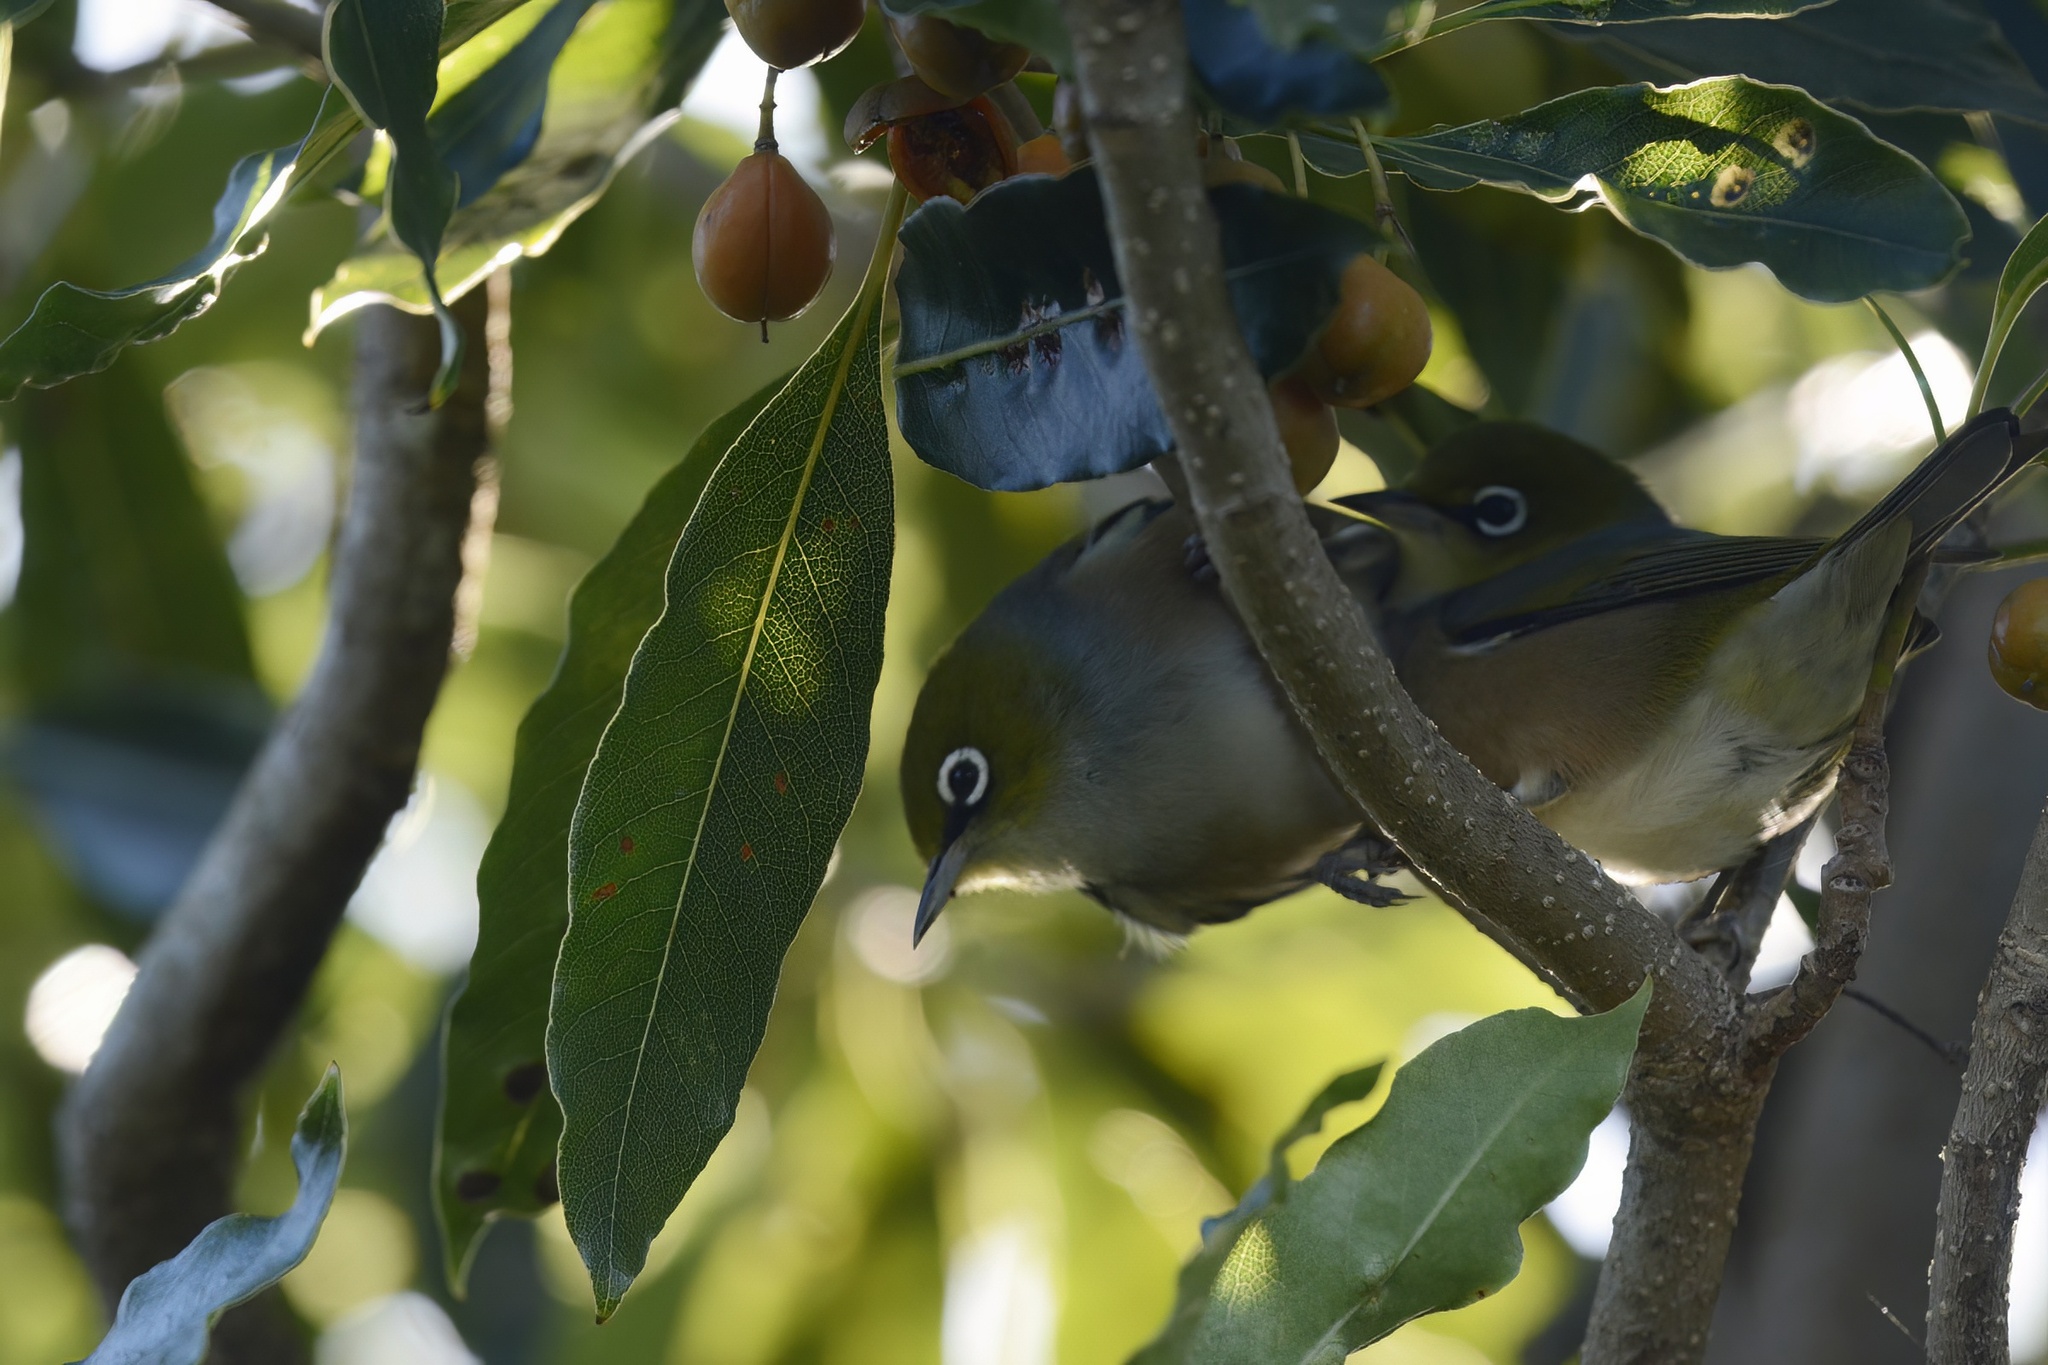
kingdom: Animalia
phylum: Chordata
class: Aves
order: Passeriformes
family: Zosteropidae
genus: Zosterops
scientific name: Zosterops lateralis
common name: Silvereye
